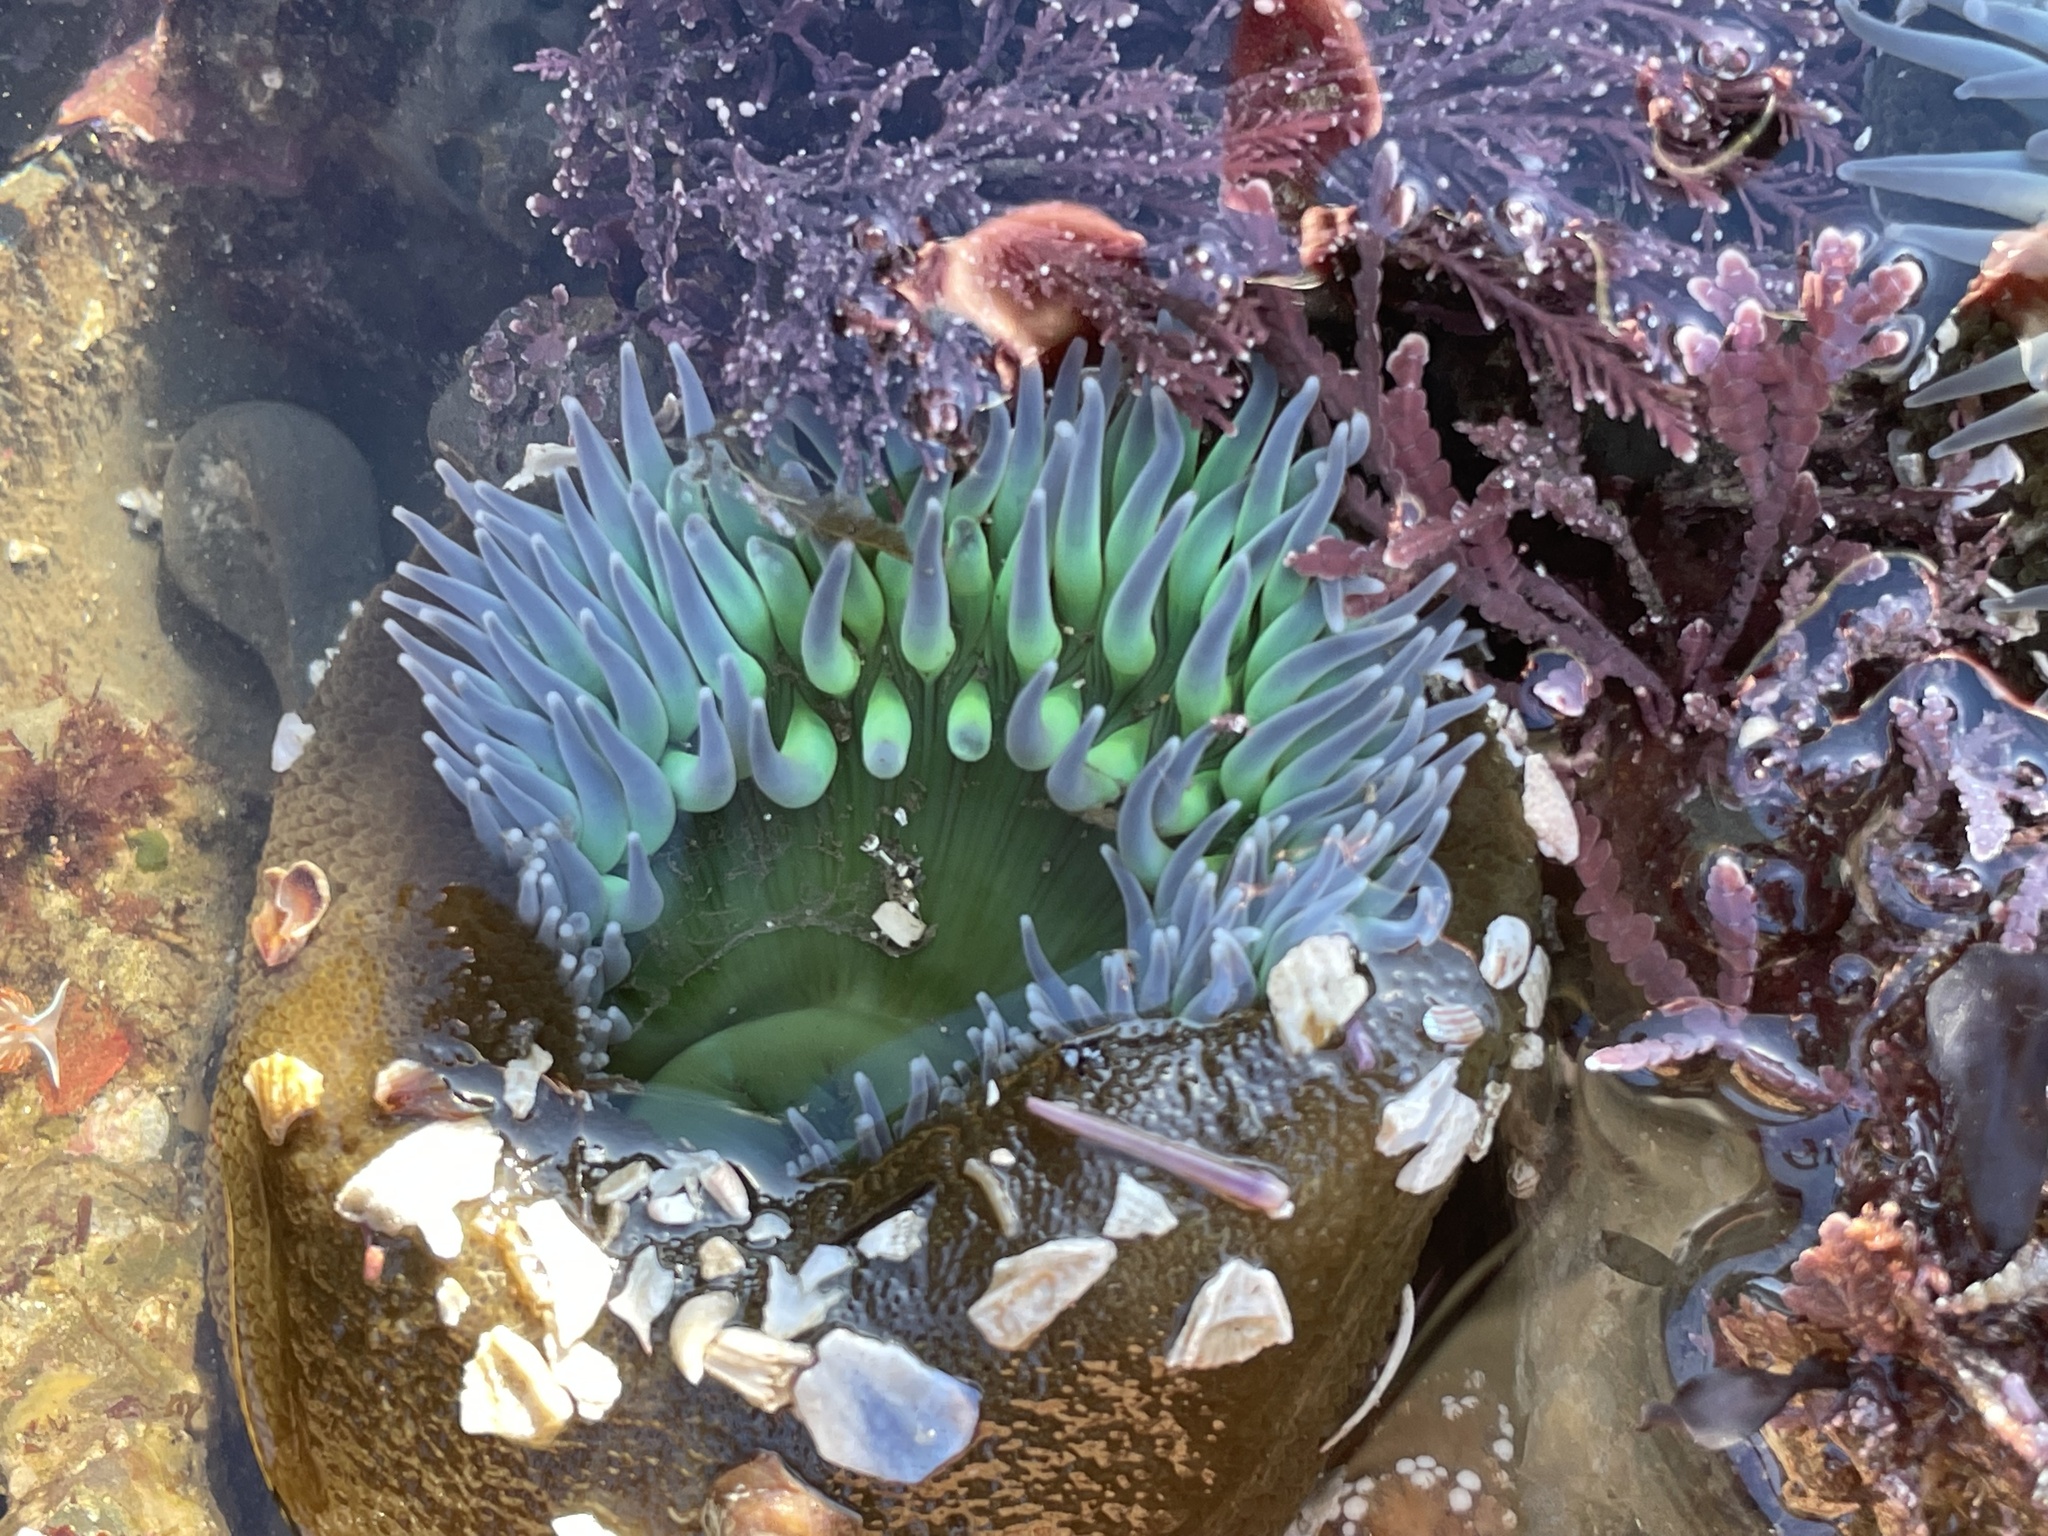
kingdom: Animalia
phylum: Cnidaria
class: Anthozoa
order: Actiniaria
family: Actiniidae
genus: Anthopleura
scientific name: Anthopleura xanthogrammica
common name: Giant green anemone
